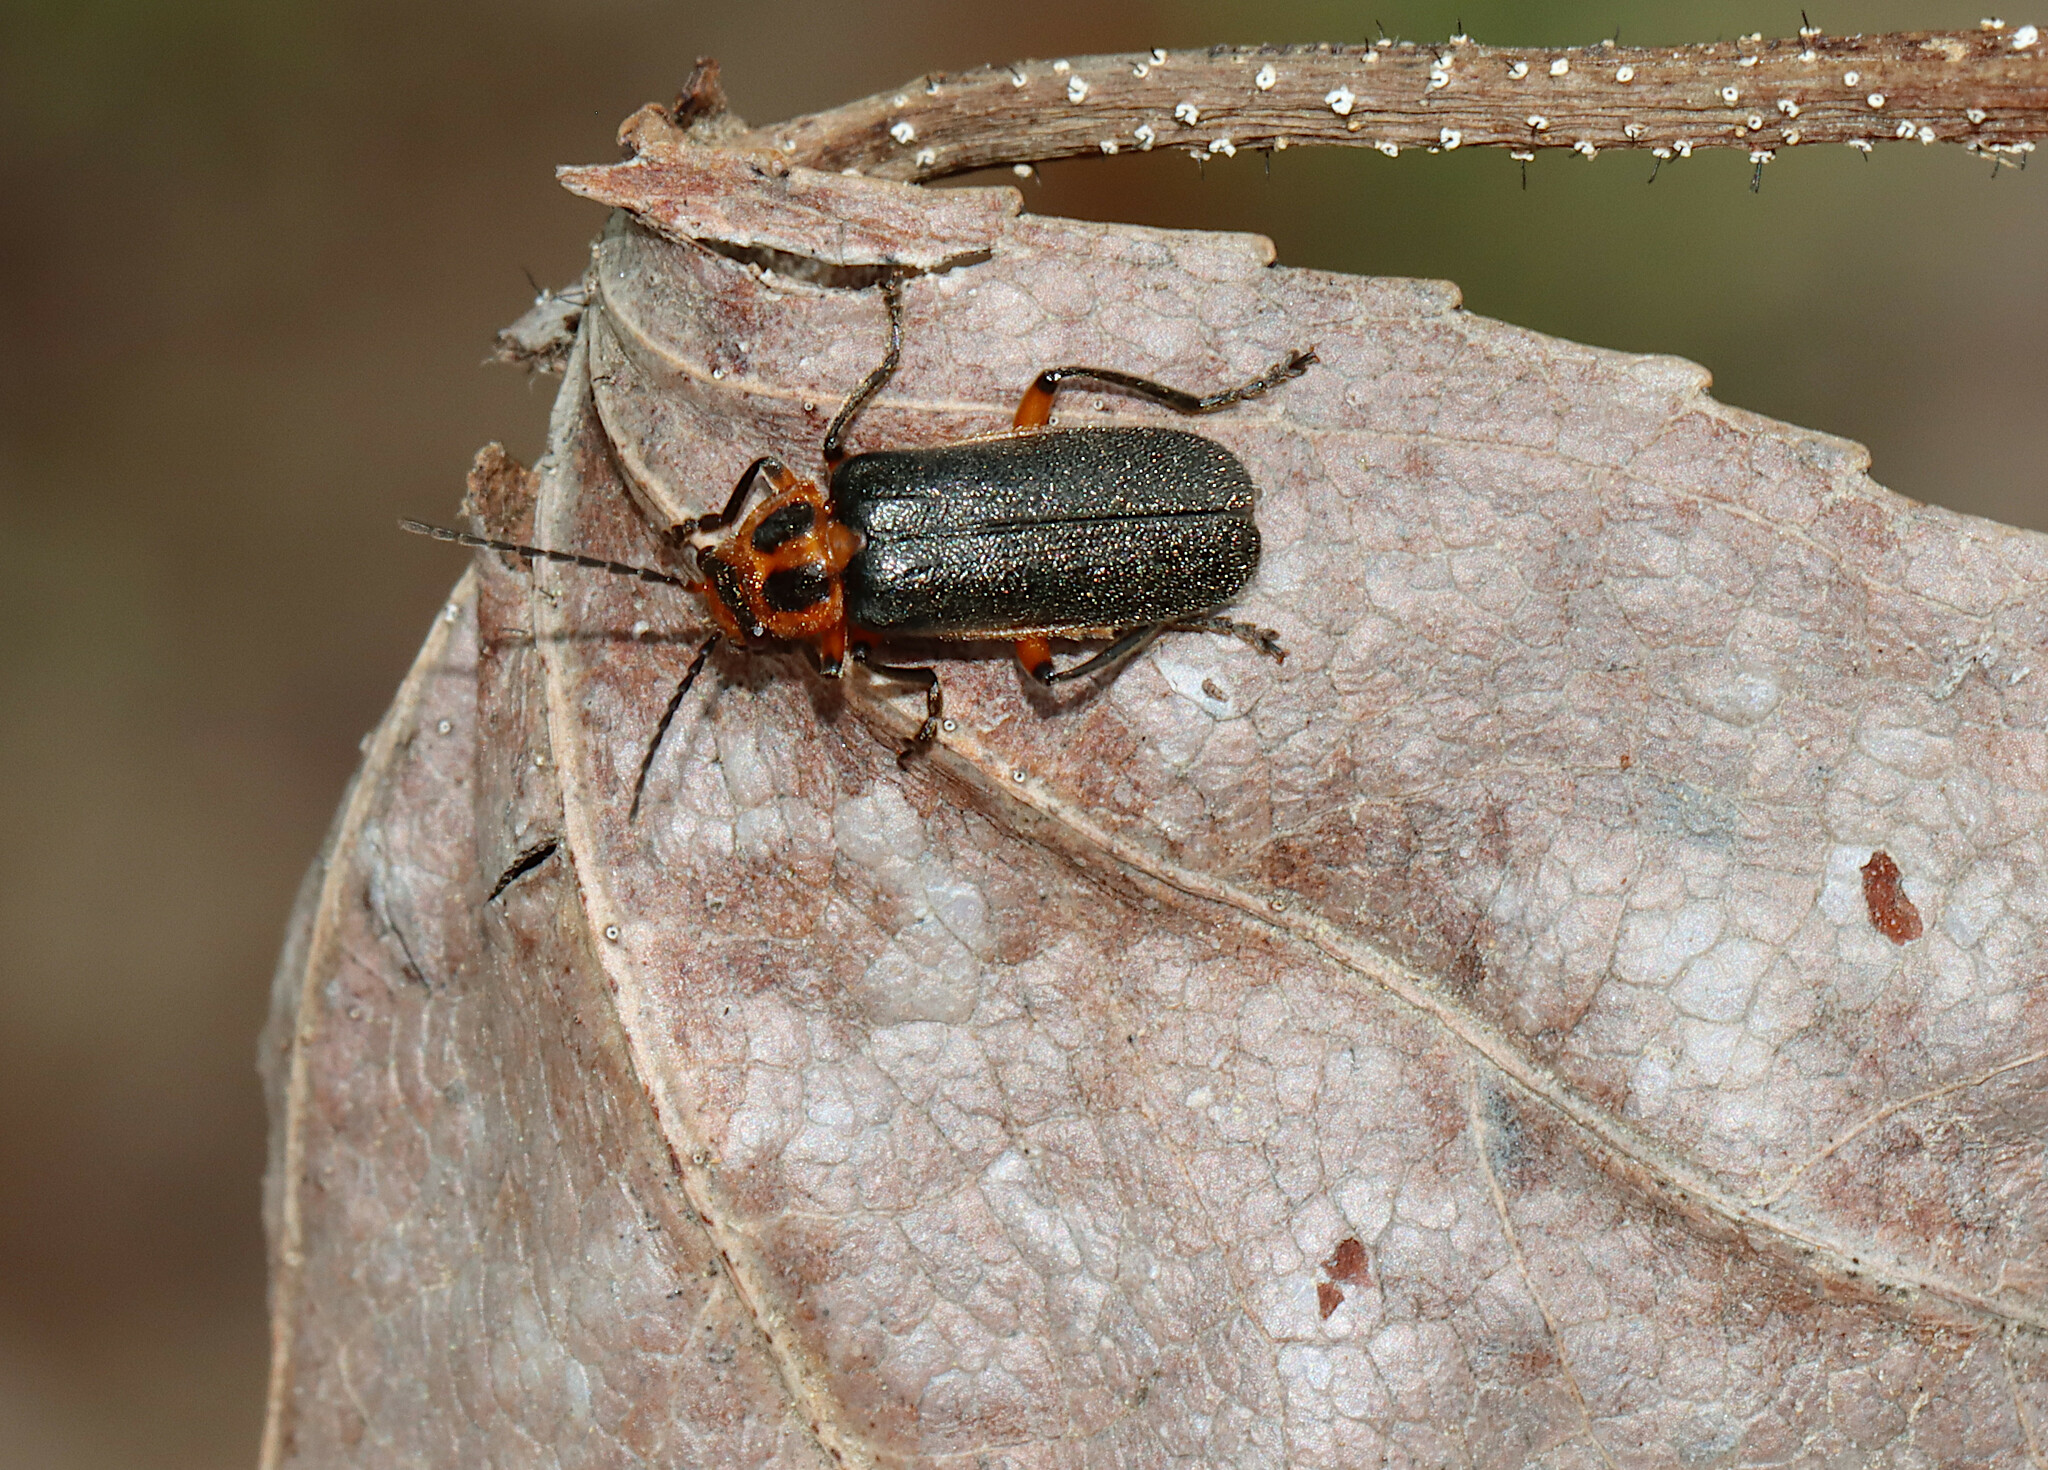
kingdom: Animalia
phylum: Arthropoda
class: Insecta
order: Coleoptera
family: Cantharidae
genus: Atalantycha
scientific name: Atalantycha bilineata
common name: Two-lined leatherwing
